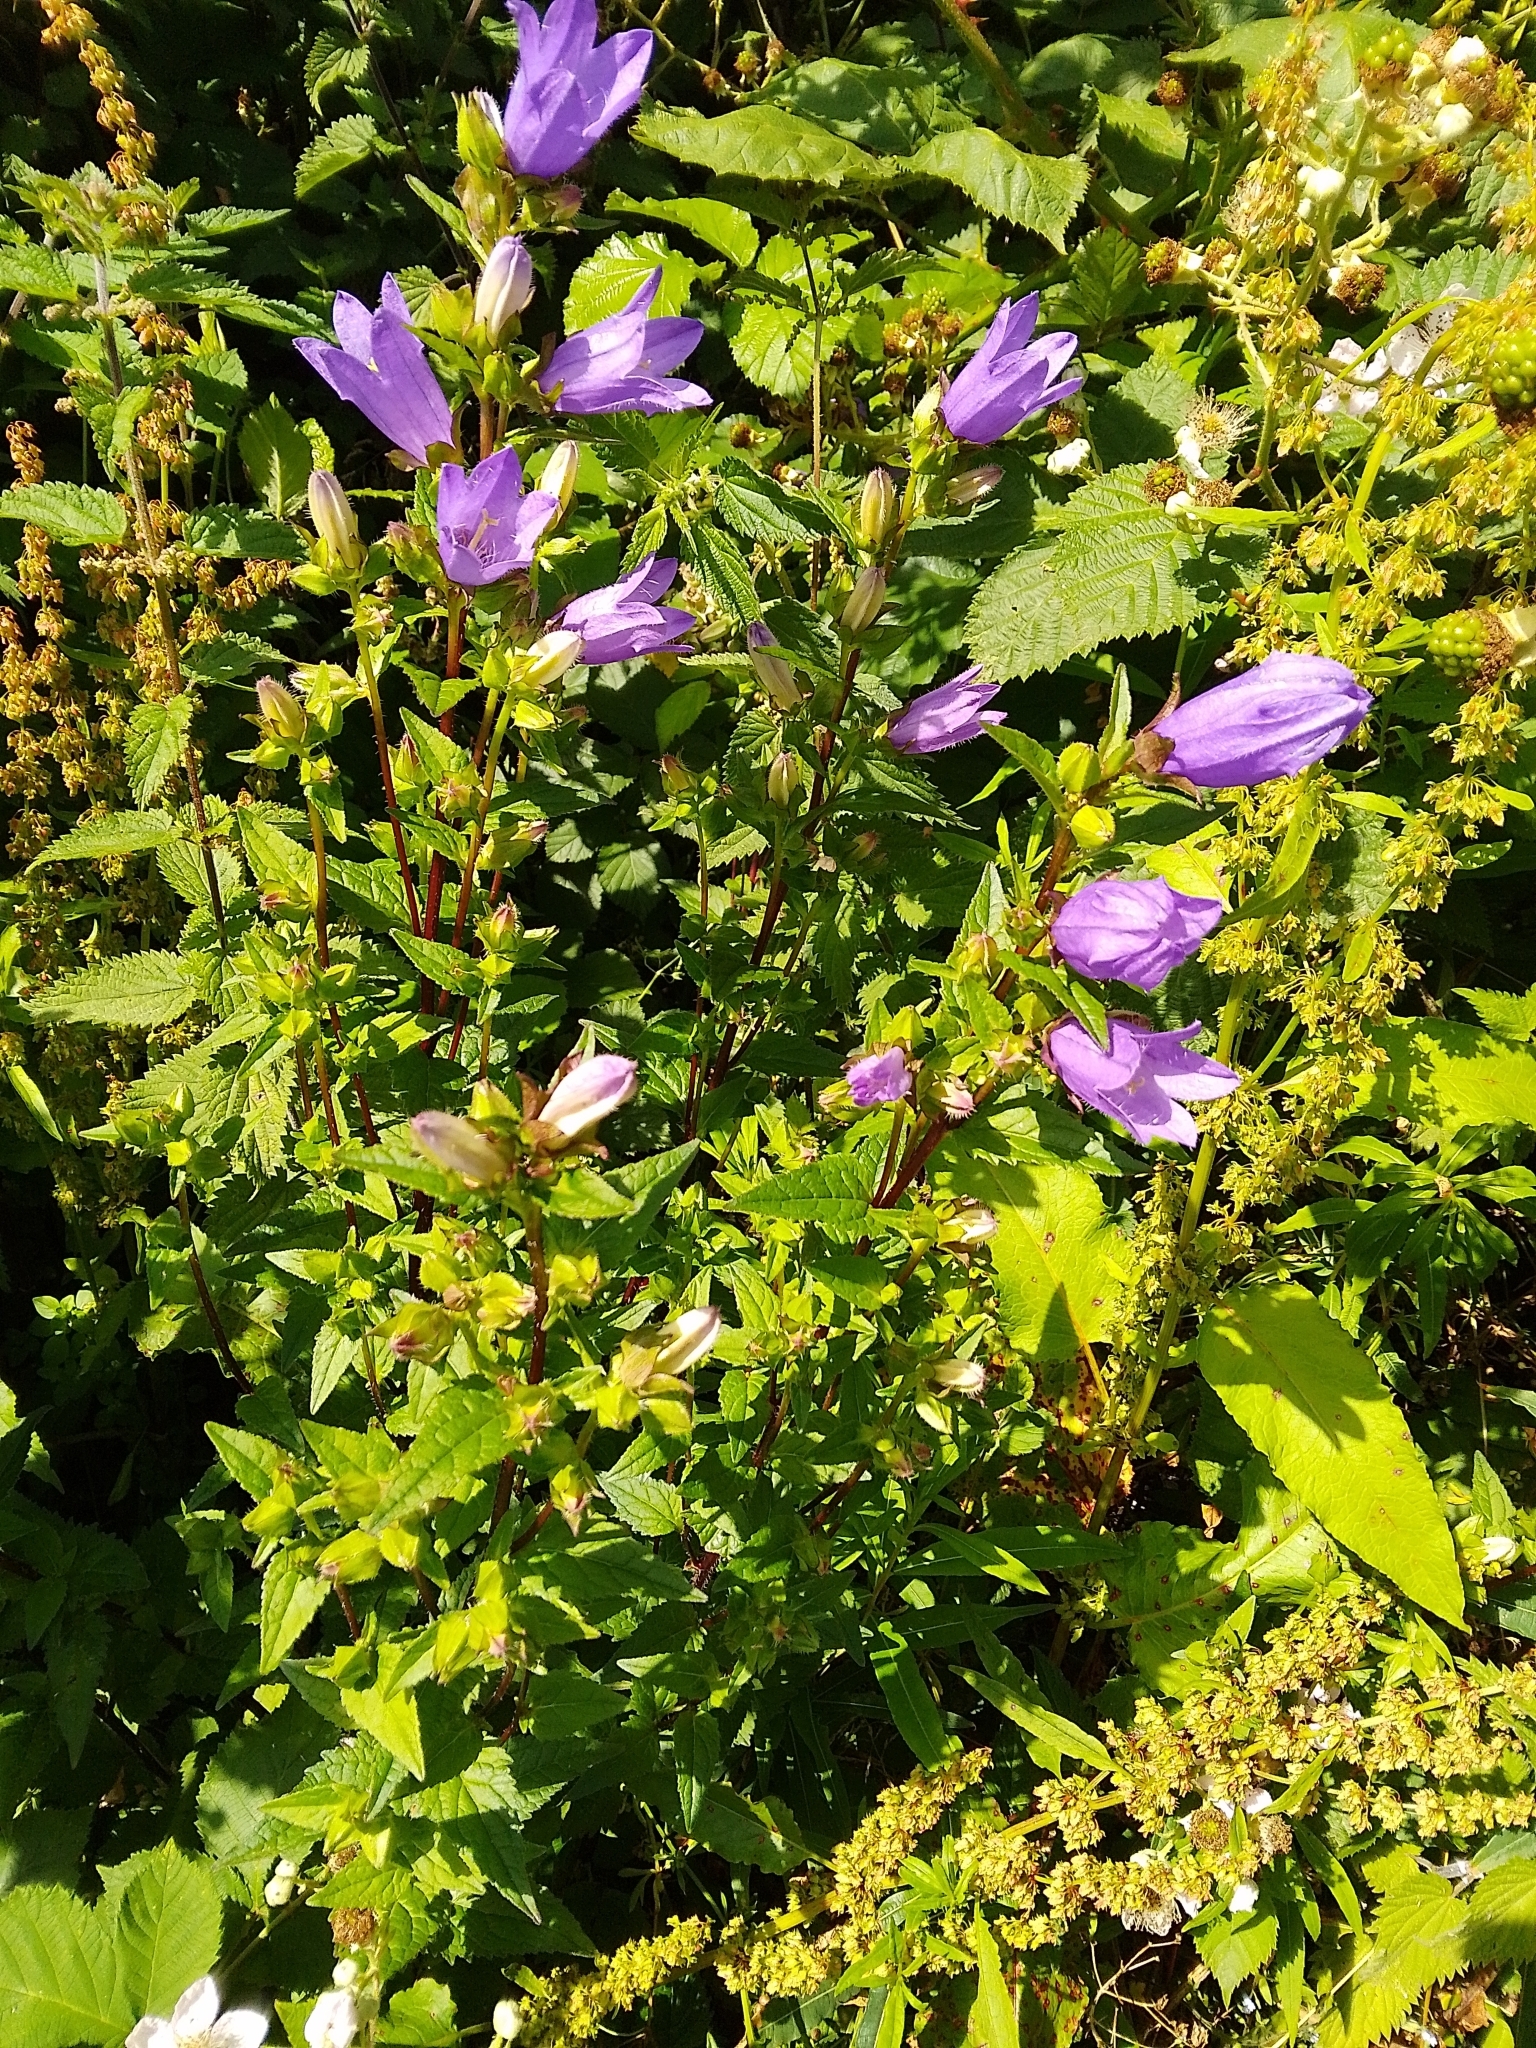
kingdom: Plantae
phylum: Tracheophyta
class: Magnoliopsida
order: Asterales
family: Campanulaceae
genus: Campanula
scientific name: Campanula trachelium
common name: Nettle-leaved bellflower
